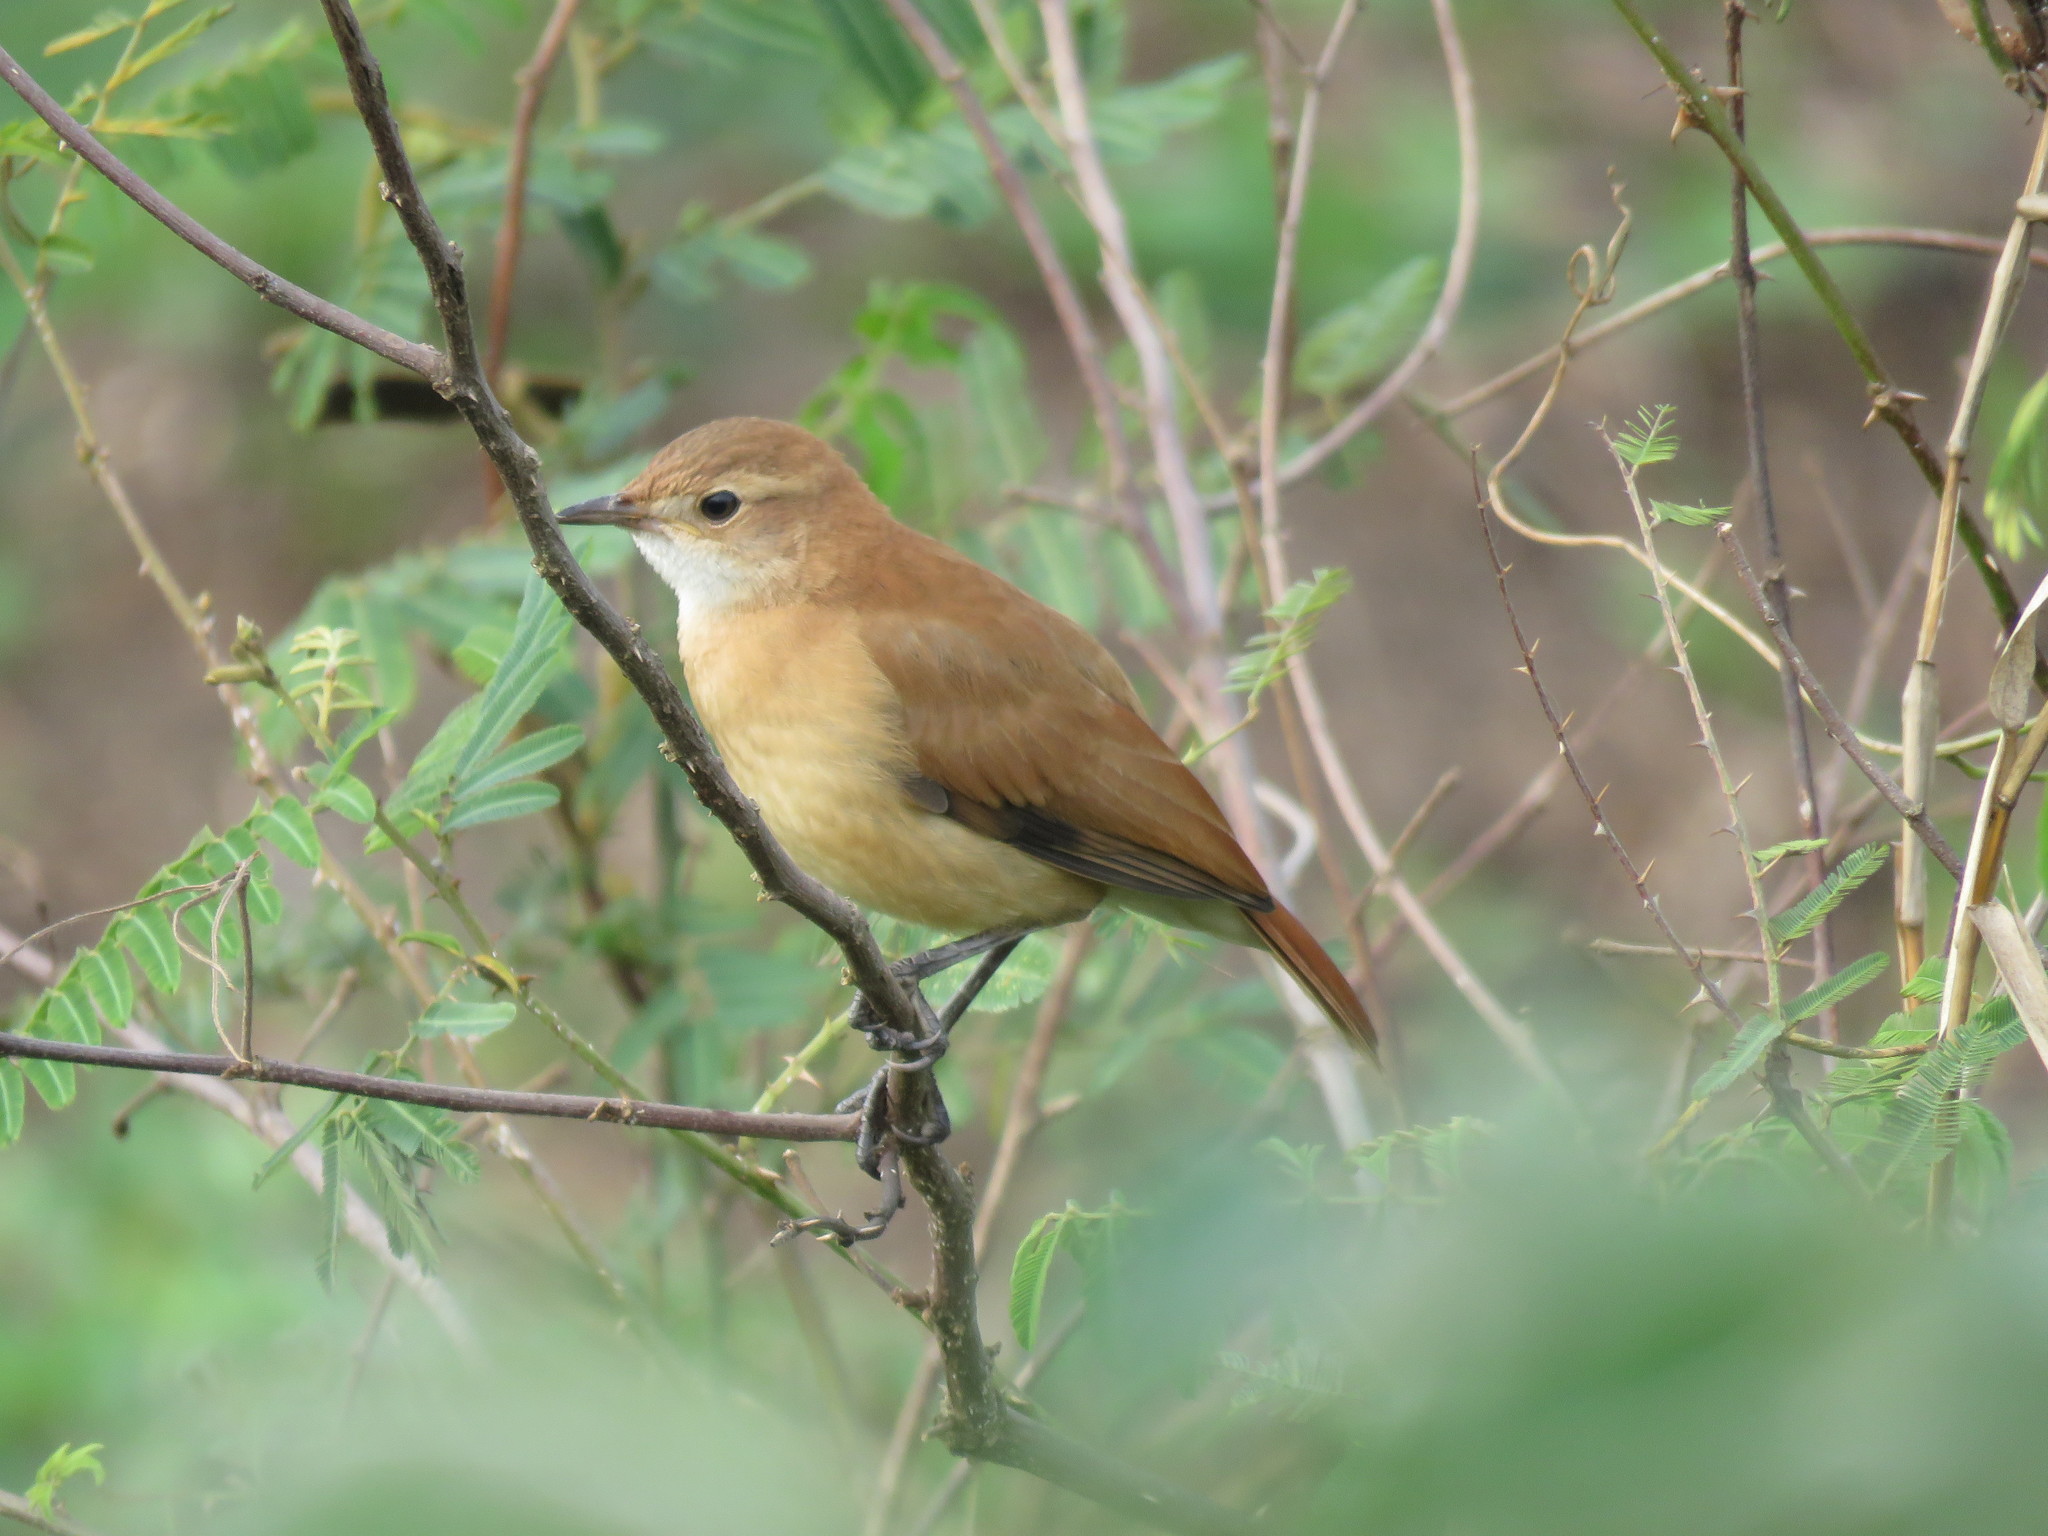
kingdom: Animalia
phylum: Chordata
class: Aves
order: Passeriformes
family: Furnariidae
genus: Furnarius
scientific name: Furnarius rufus
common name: Rufous hornero
